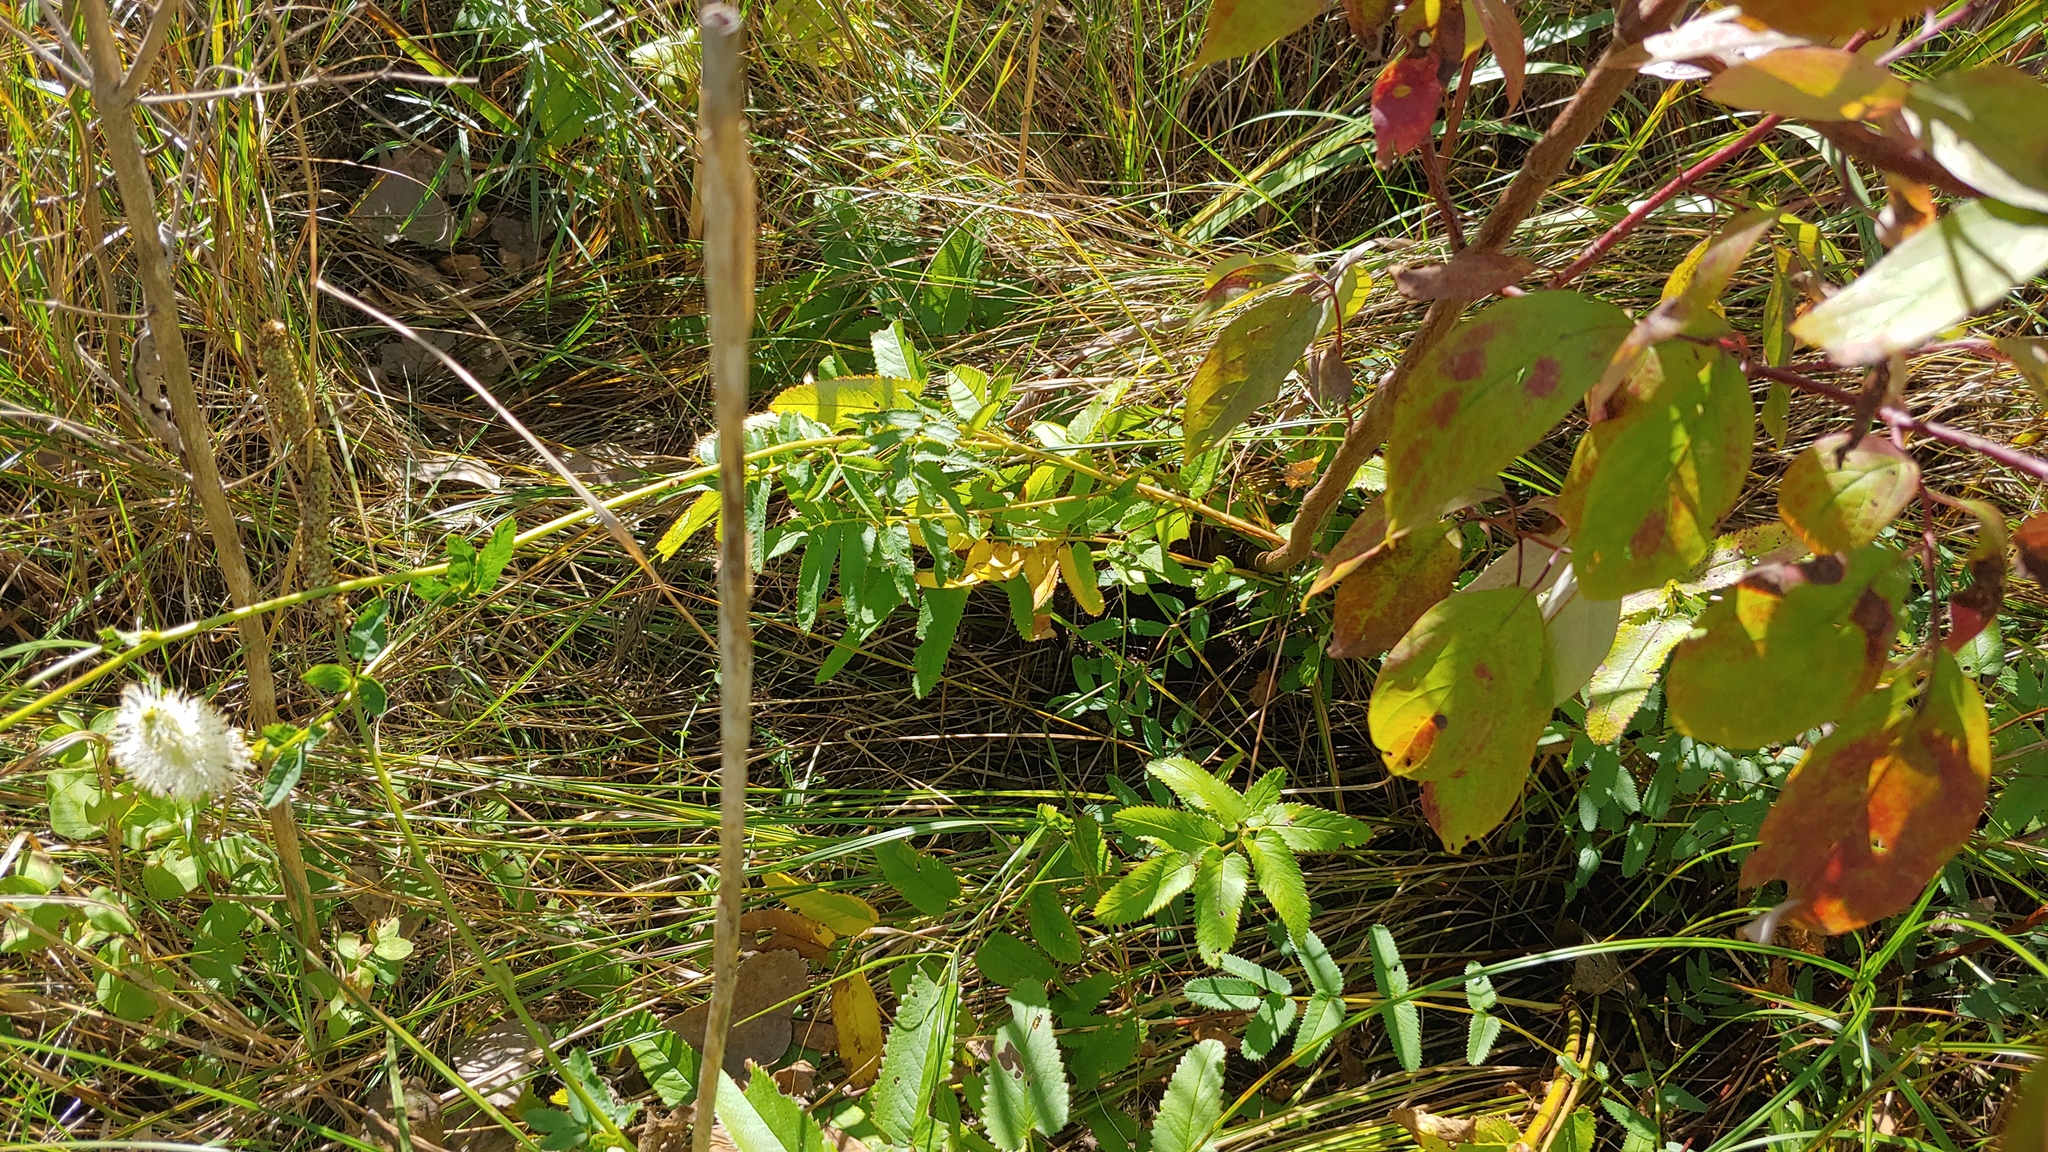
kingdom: Plantae
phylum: Tracheophyta
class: Magnoliopsida
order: Rosales
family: Rosaceae
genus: Sanguisorba
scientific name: Sanguisorba canadensis
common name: White burnet
